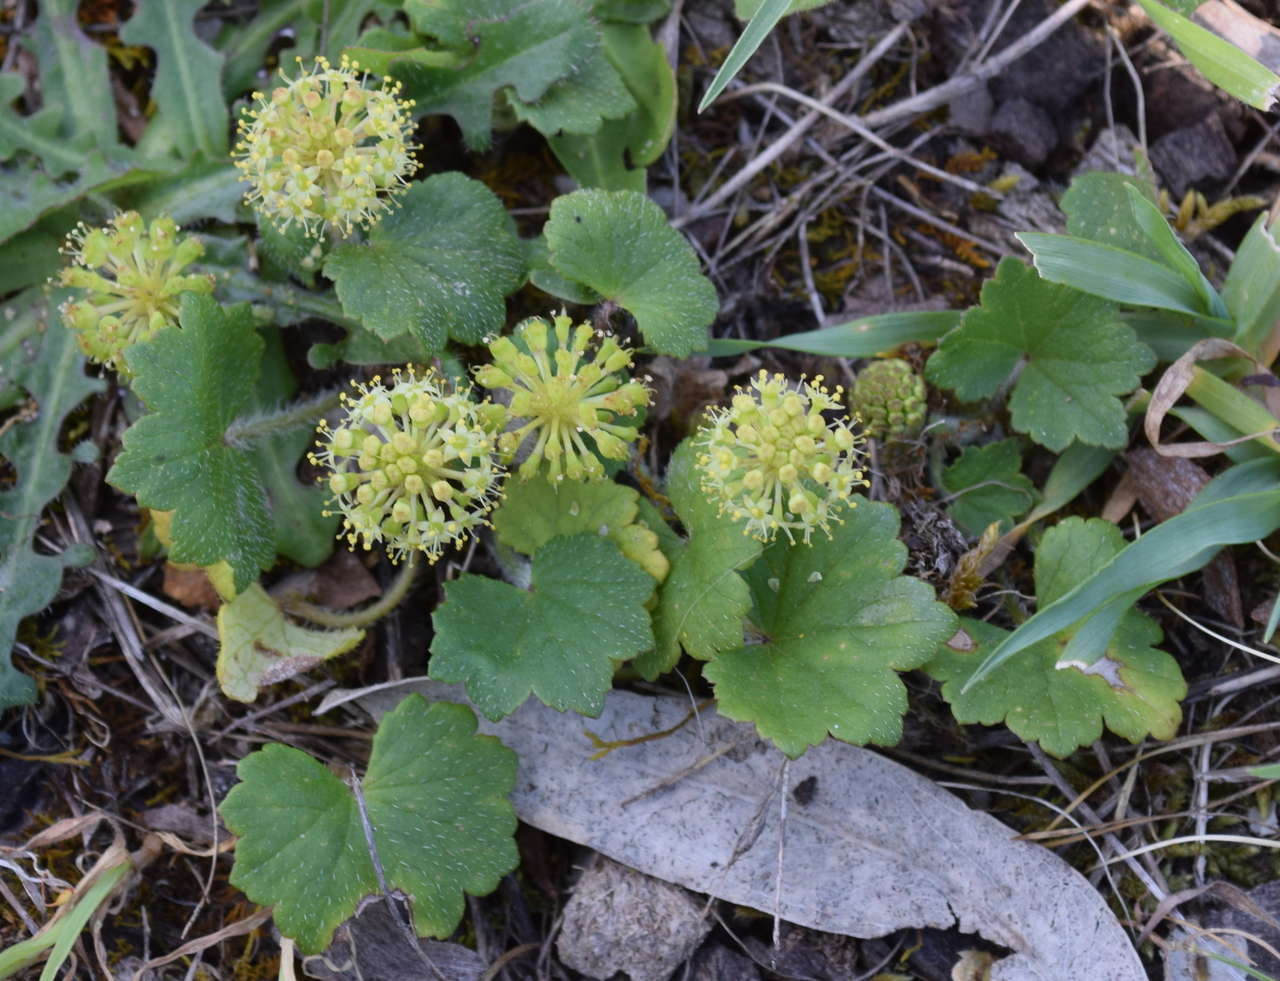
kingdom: Plantae
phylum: Tracheophyta
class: Magnoliopsida
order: Apiales
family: Araliaceae
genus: Hydrocotyle
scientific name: Hydrocotyle laxiflora
